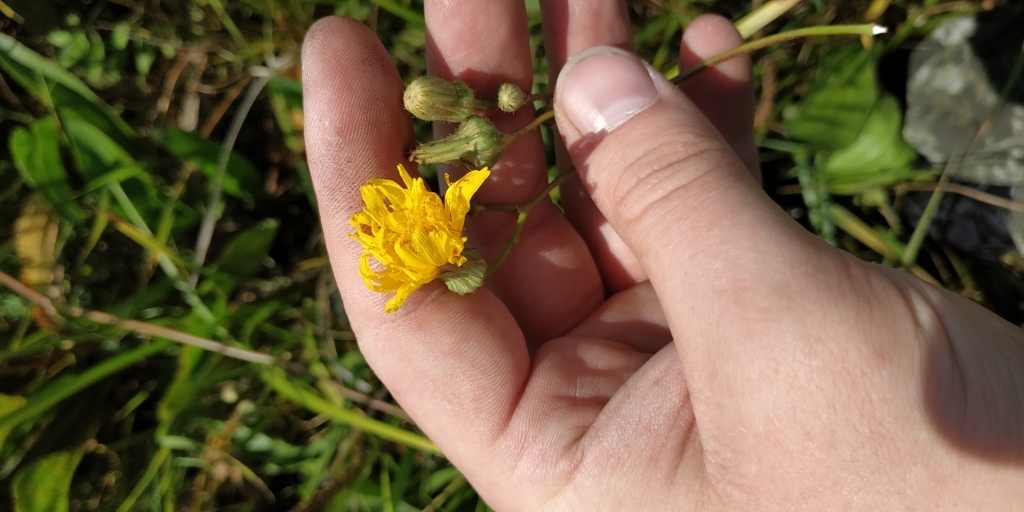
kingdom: Plantae
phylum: Tracheophyta
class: Magnoliopsida
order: Asterales
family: Asteraceae
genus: Sonchus
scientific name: Sonchus arvensis
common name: Perennial sow-thistle
